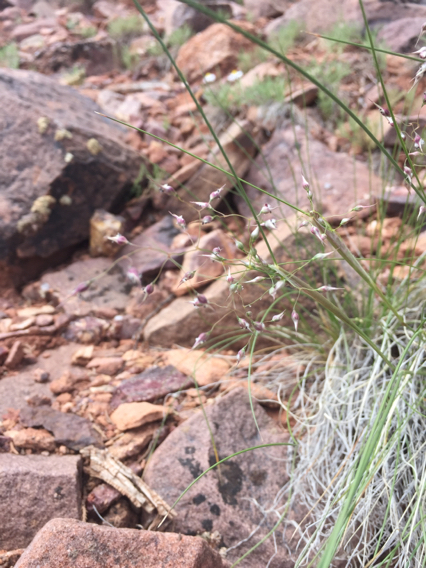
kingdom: Plantae
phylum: Tracheophyta
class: Liliopsida
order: Poales
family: Poaceae
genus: Eriocoma
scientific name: Eriocoma hymenoides
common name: Indian mountain ricegrass
